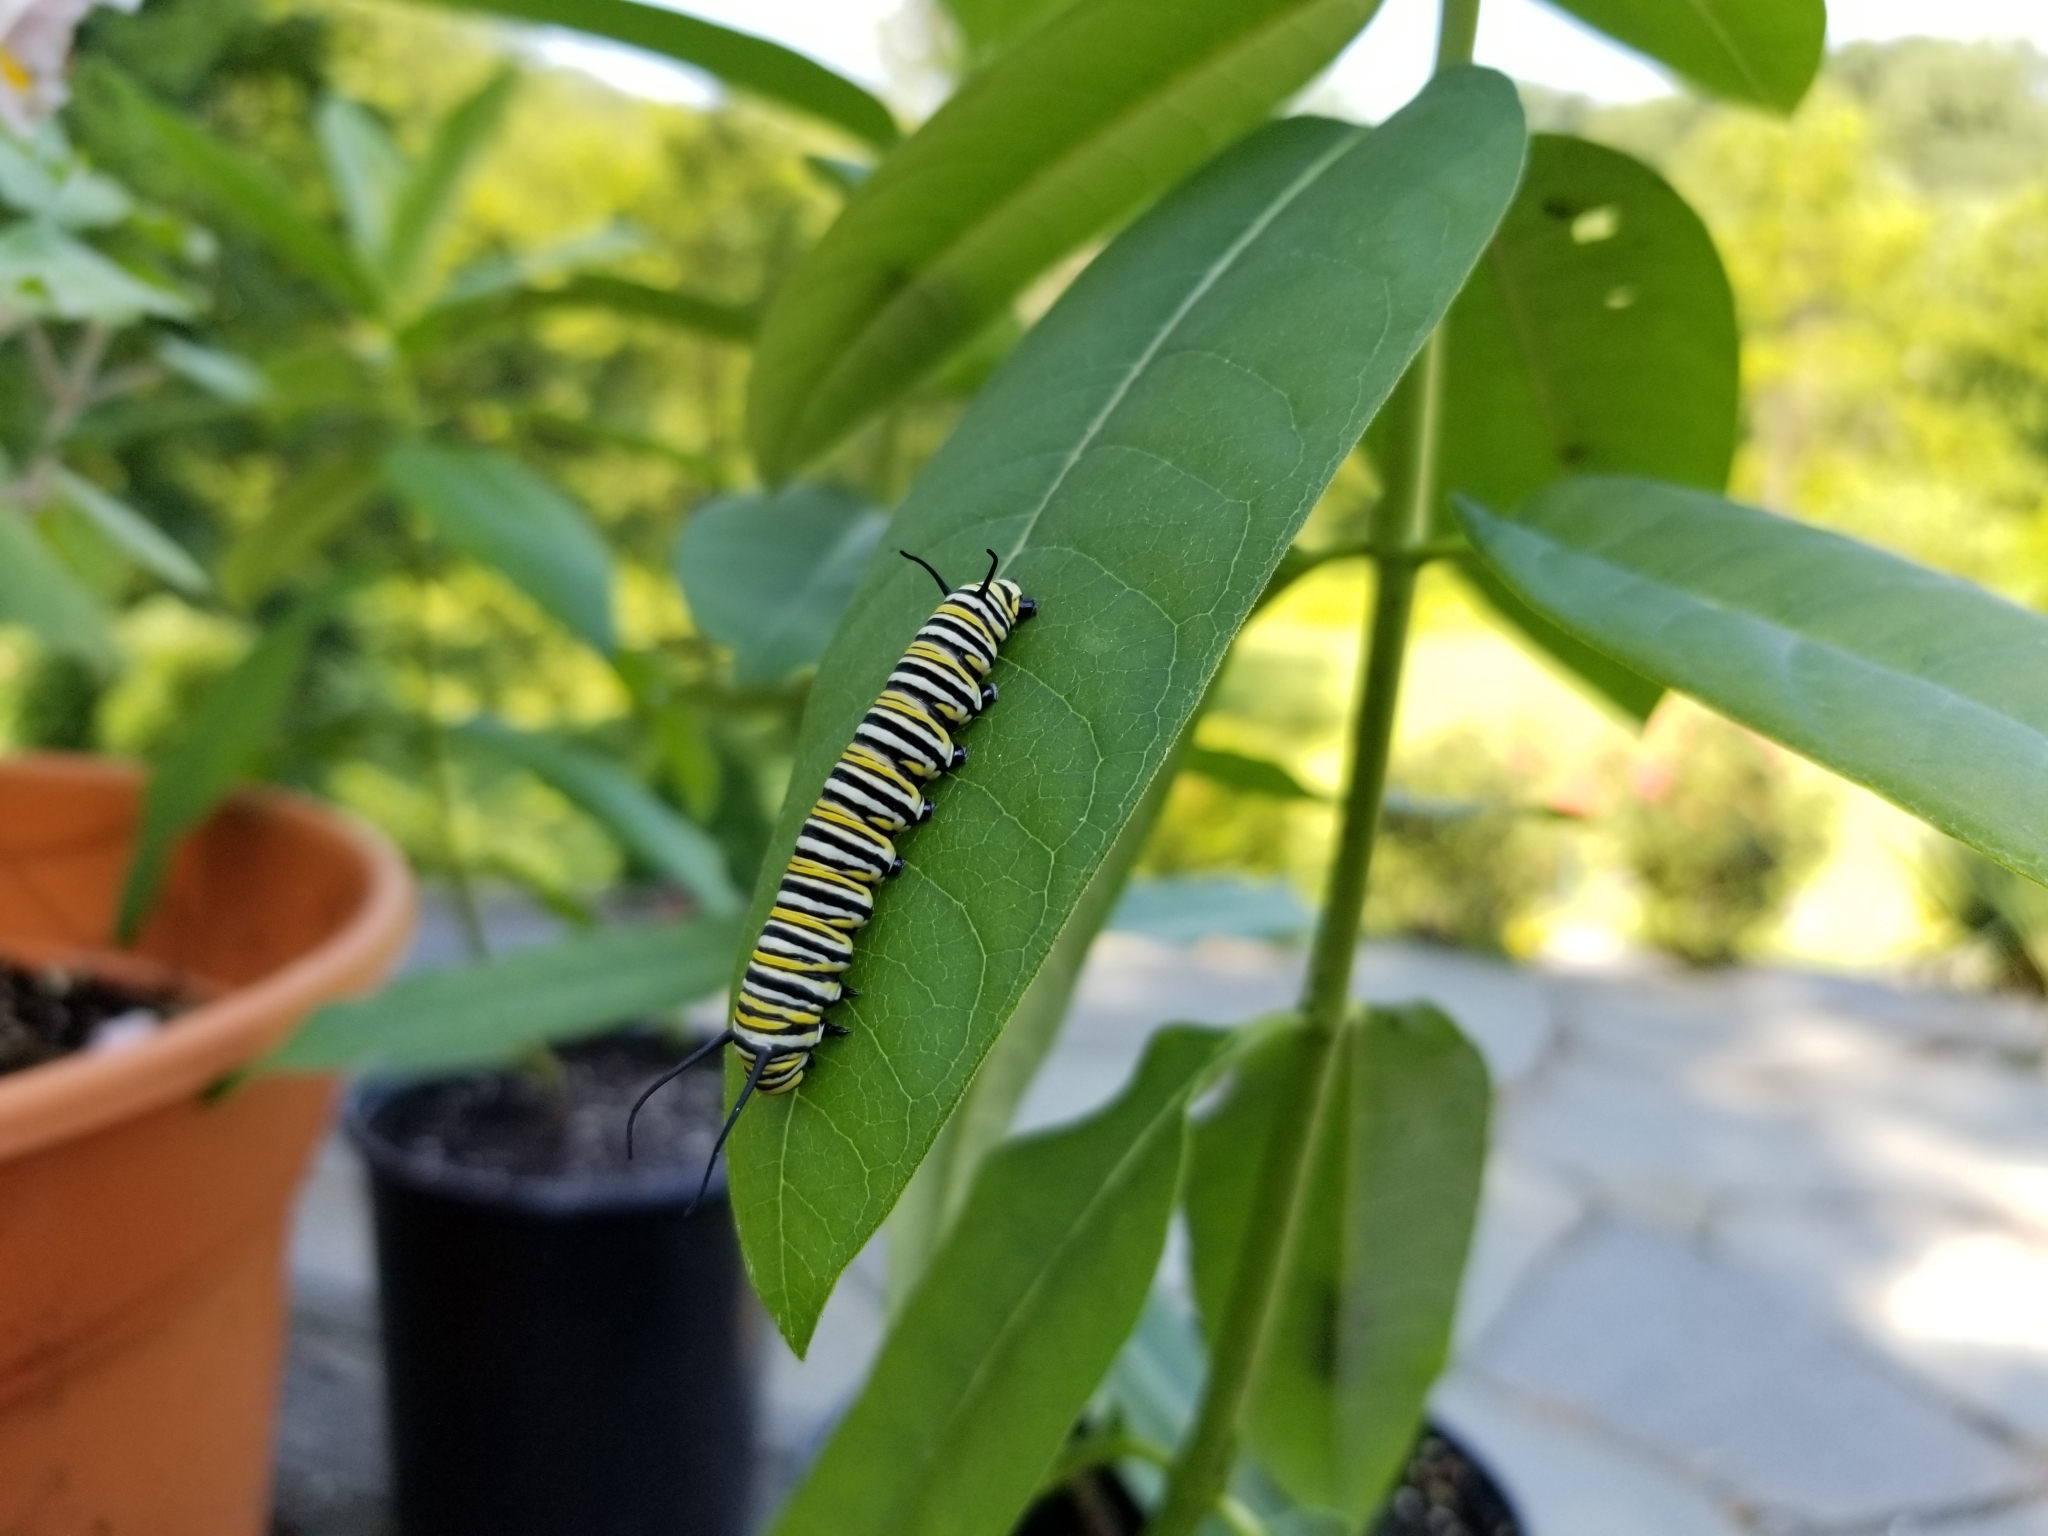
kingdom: Animalia
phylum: Arthropoda
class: Insecta
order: Lepidoptera
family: Nymphalidae
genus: Danaus
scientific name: Danaus plexippus
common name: Monarch
